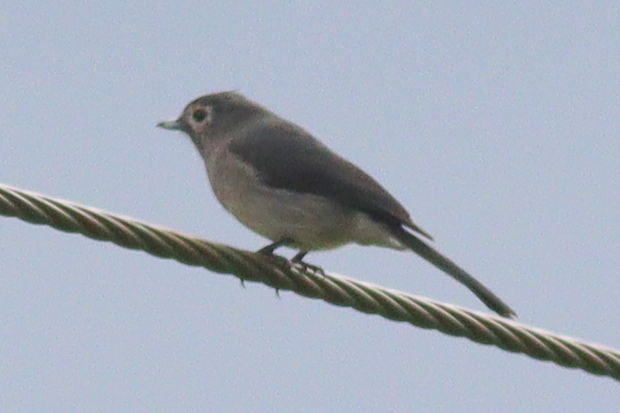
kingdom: Animalia
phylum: Chordata
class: Aves
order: Passeriformes
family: Muscicapidae
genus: Dioptrornis
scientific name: Dioptrornis fischeri
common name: White-eyed slaty flycatcher
